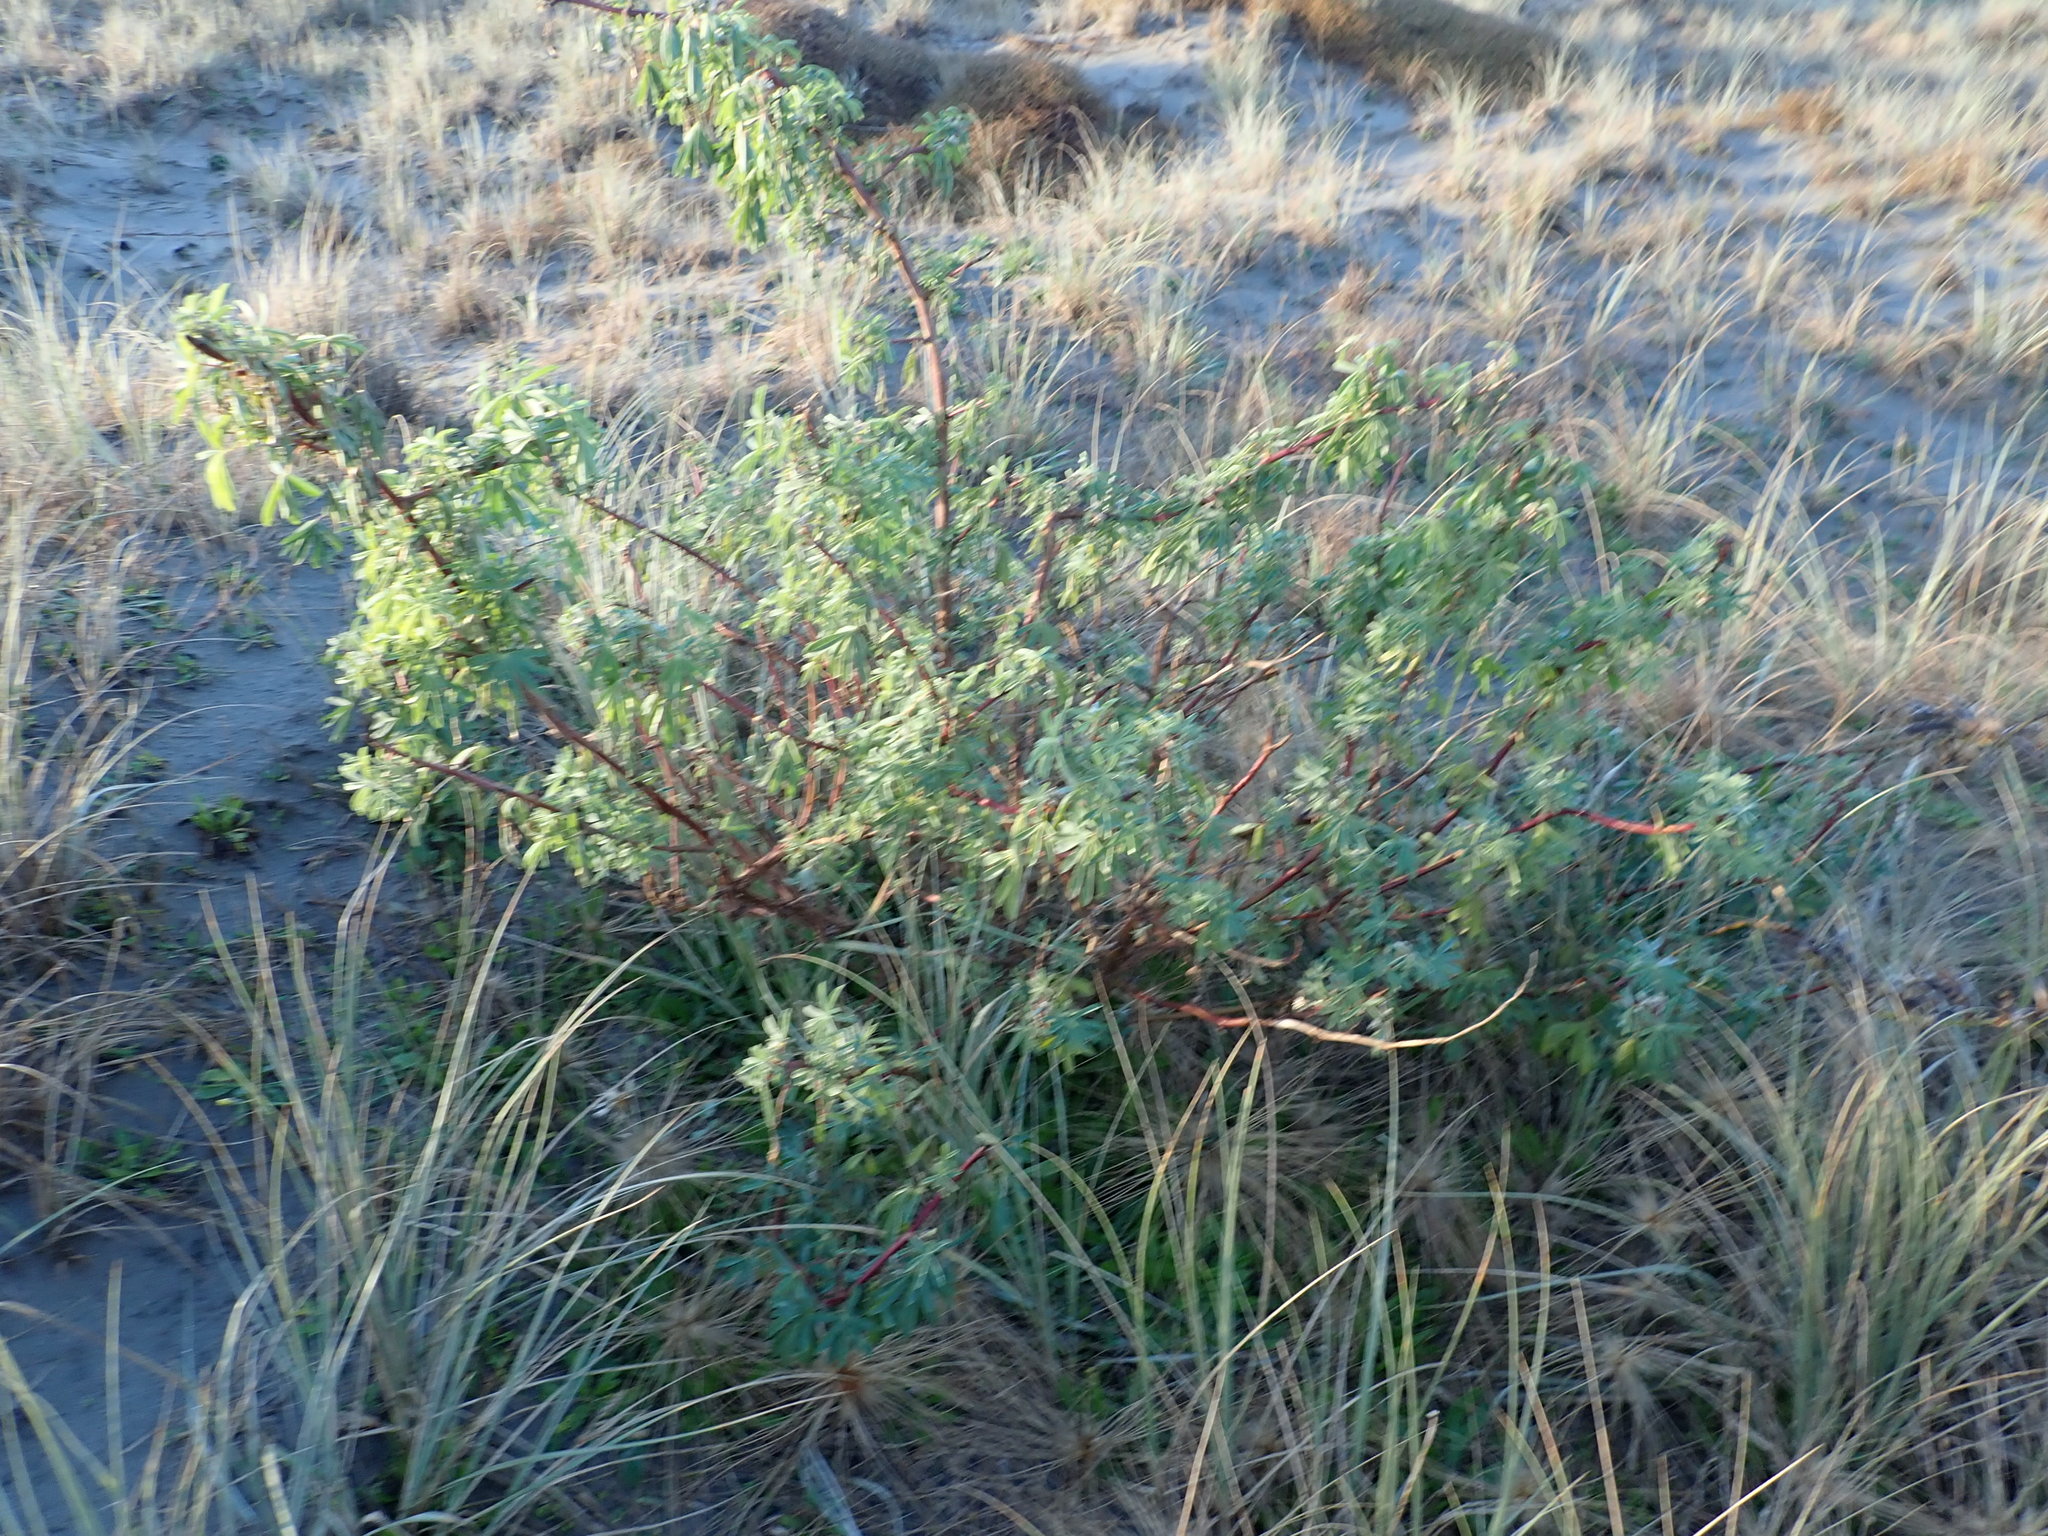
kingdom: Plantae
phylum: Tracheophyta
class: Magnoliopsida
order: Fabales
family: Fabaceae
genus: Lupinus
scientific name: Lupinus arboreus
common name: Yellow bush lupine
